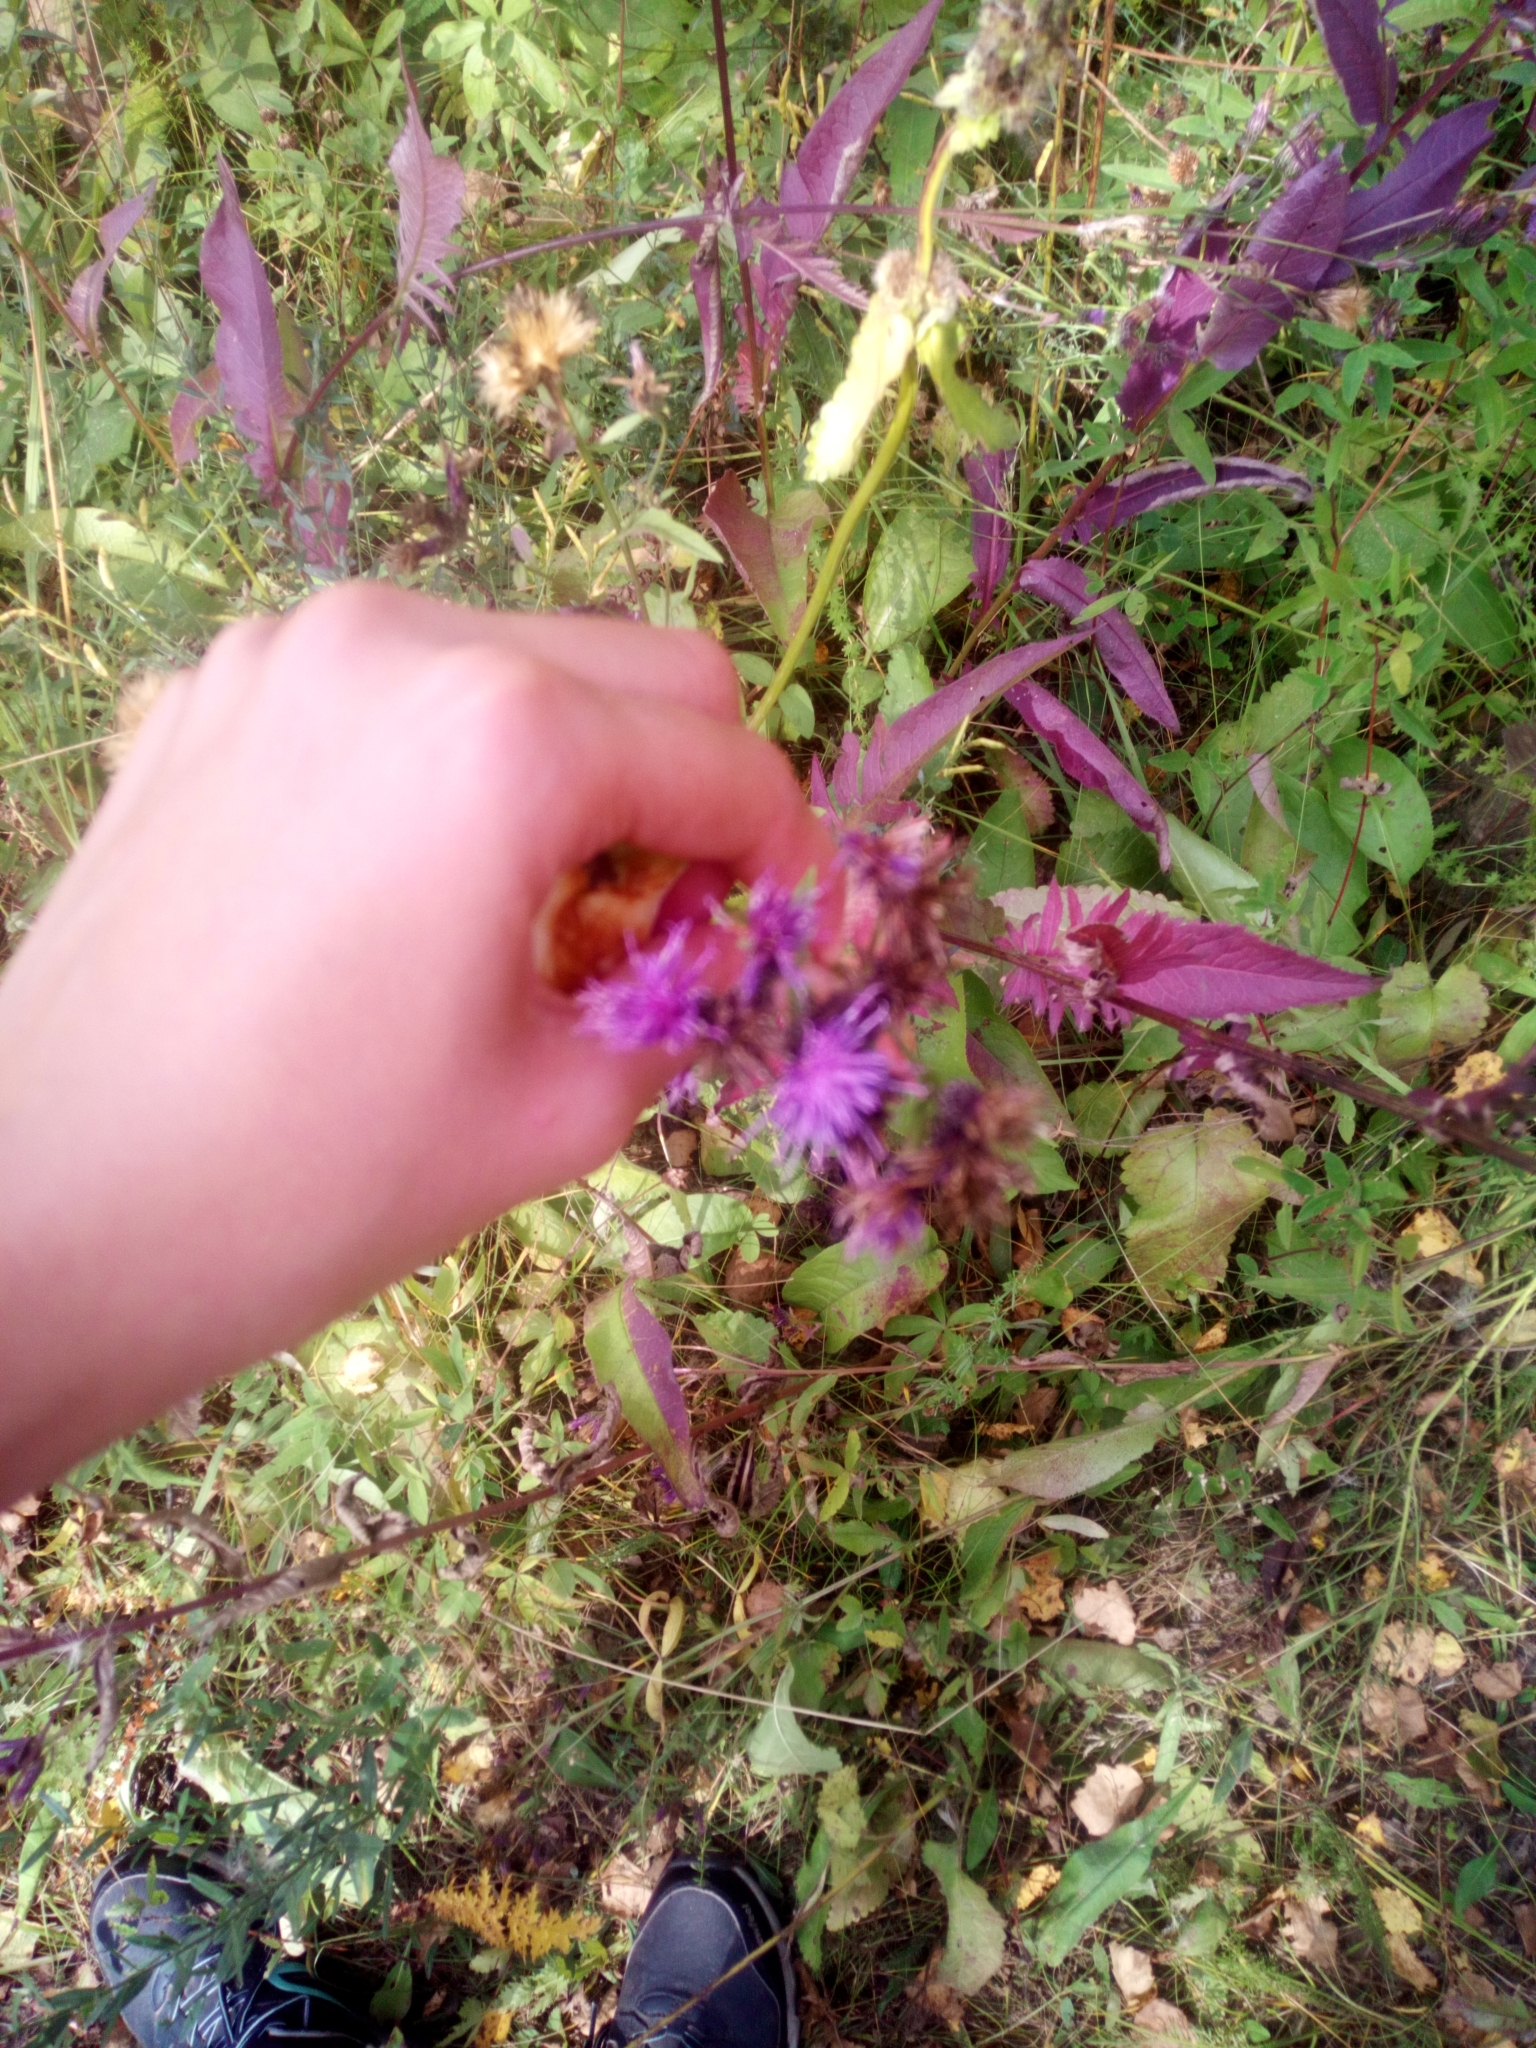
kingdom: Plantae
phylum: Tracheophyta
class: Magnoliopsida
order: Asterales
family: Asteraceae
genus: Serratula
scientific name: Serratula tinctoria
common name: Saw-wort
